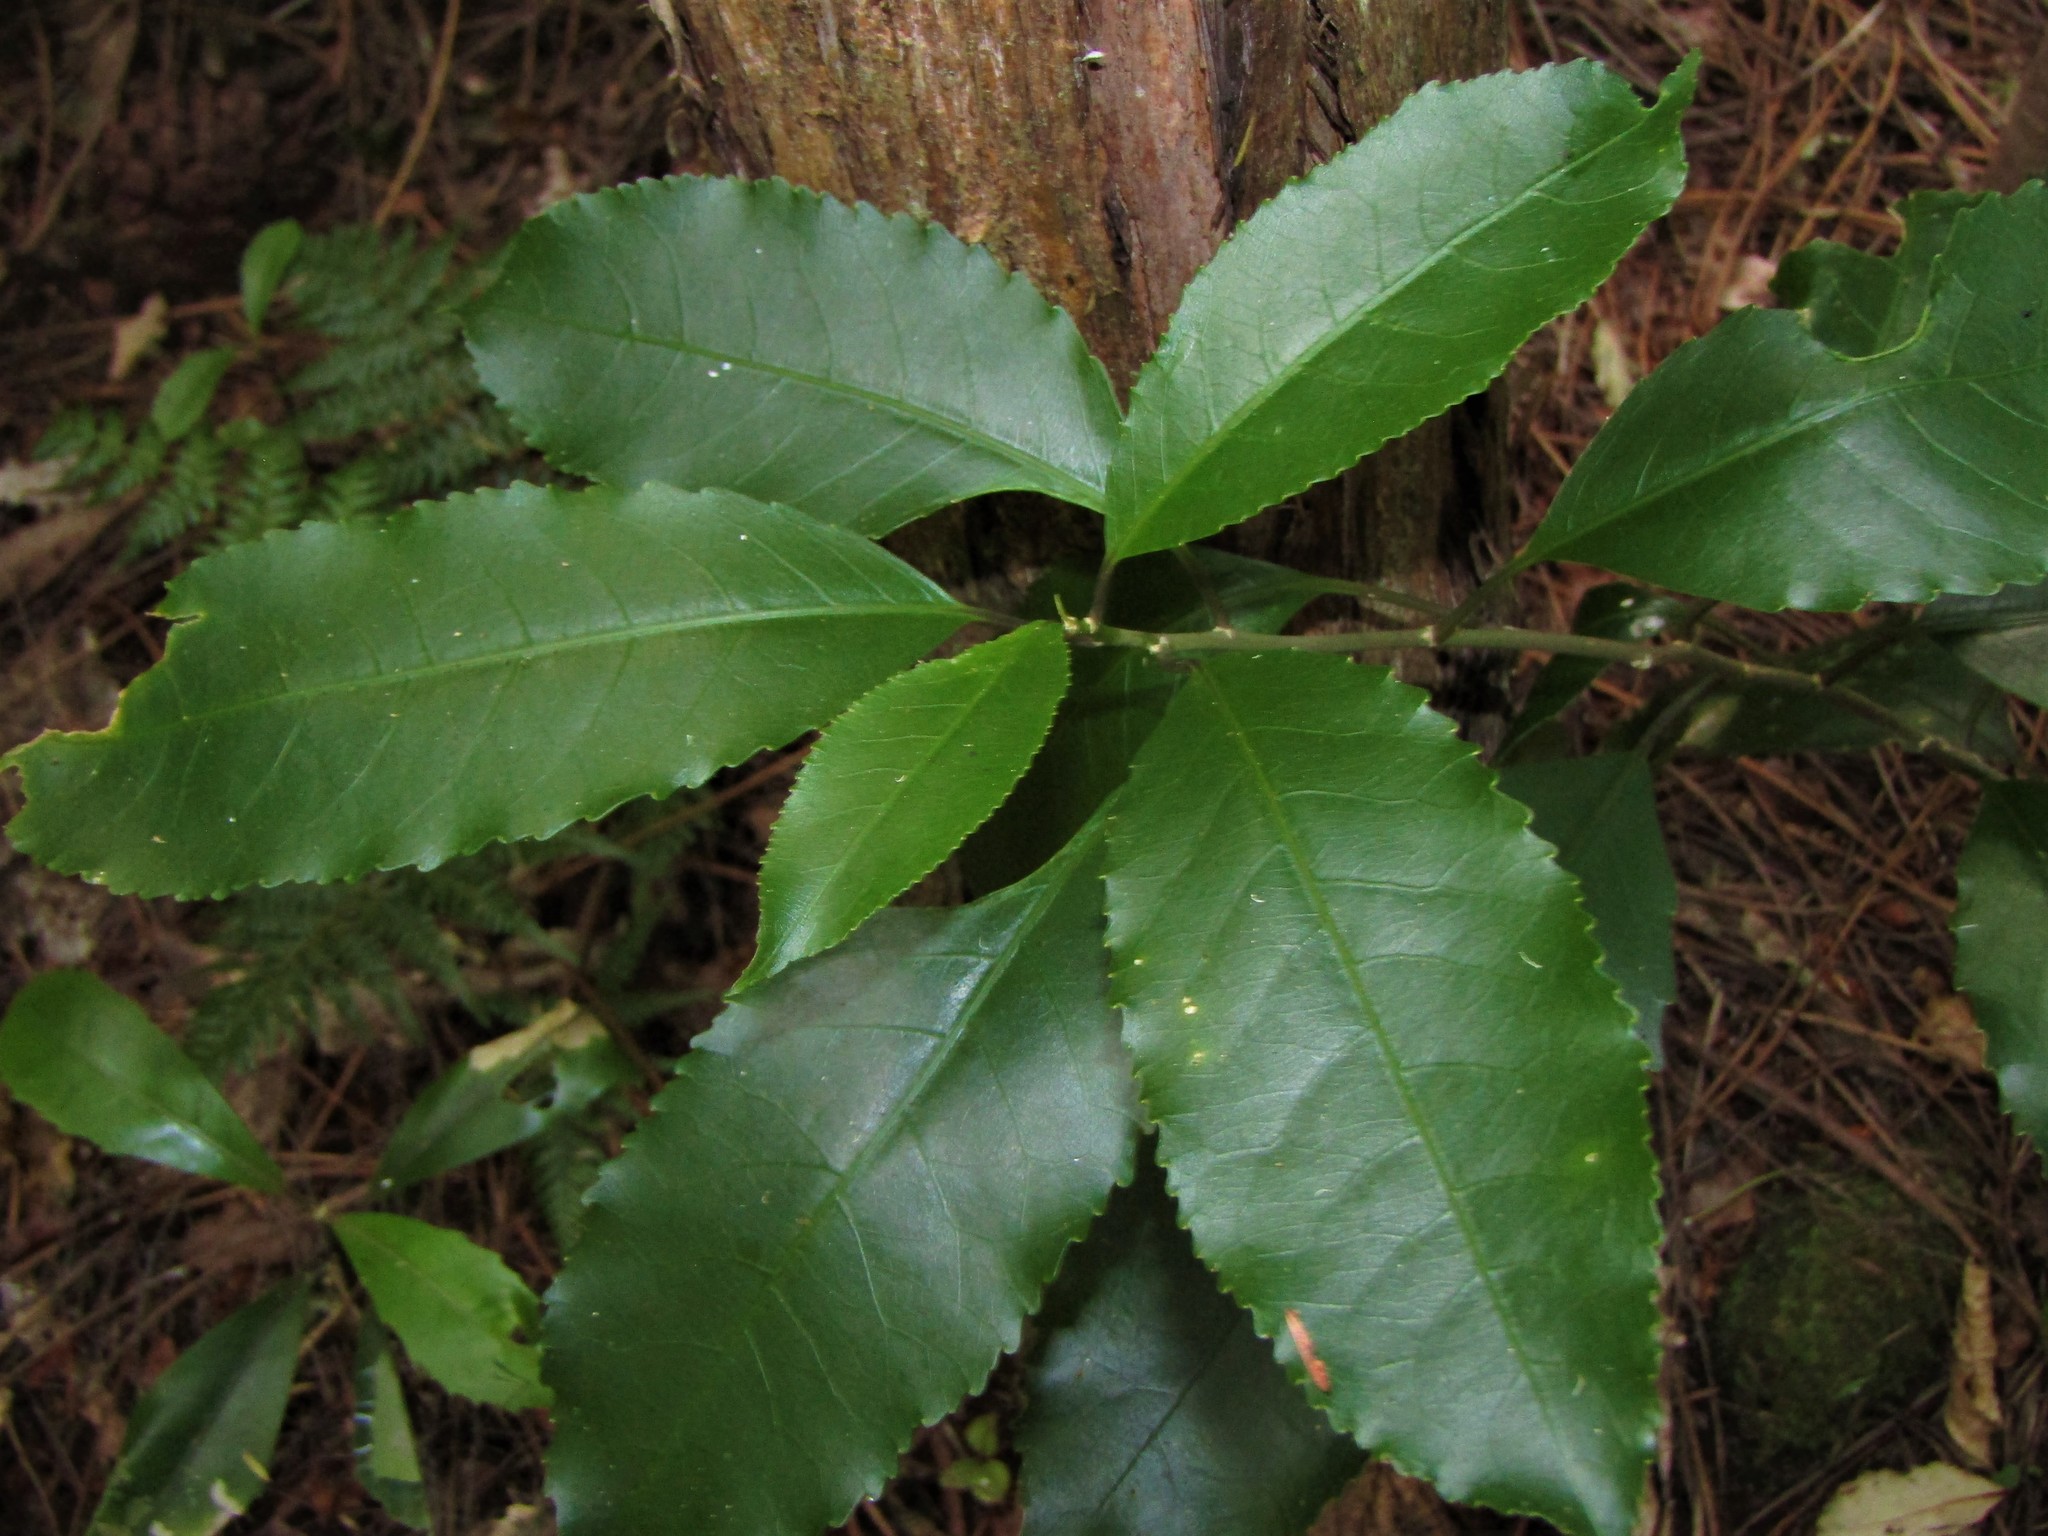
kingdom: Plantae
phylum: Tracheophyta
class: Magnoliopsida
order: Malpighiales
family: Violaceae
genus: Melicytus
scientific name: Melicytus ramiflorus
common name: Mahoe
